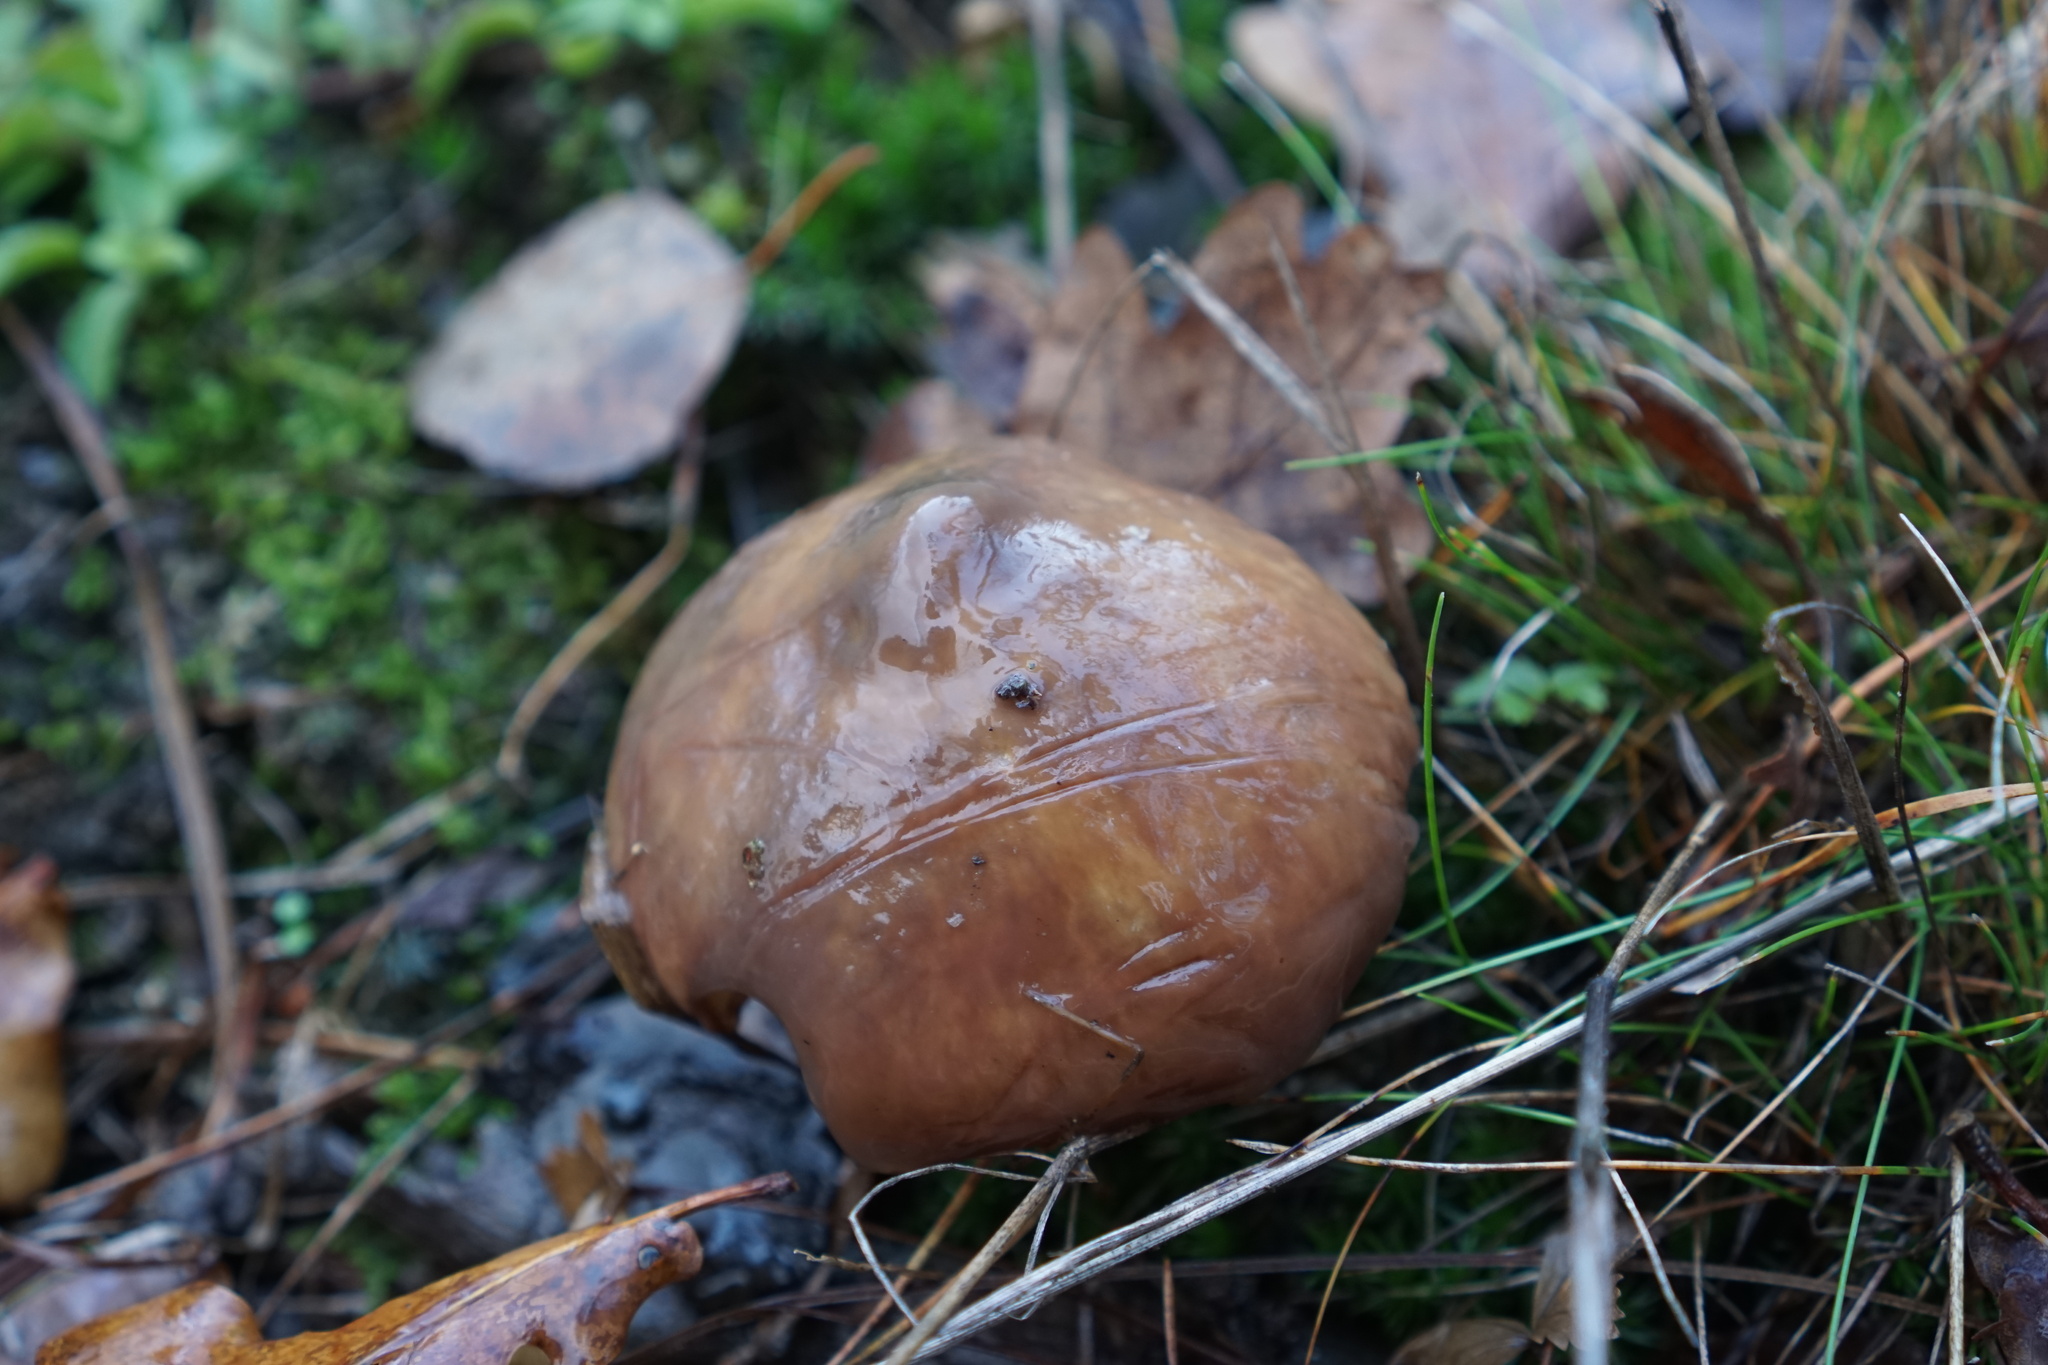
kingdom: Fungi
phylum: Basidiomycota
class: Agaricomycetes
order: Boletales
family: Suillaceae
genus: Suillus
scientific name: Suillus luteus
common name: Slippery jack
